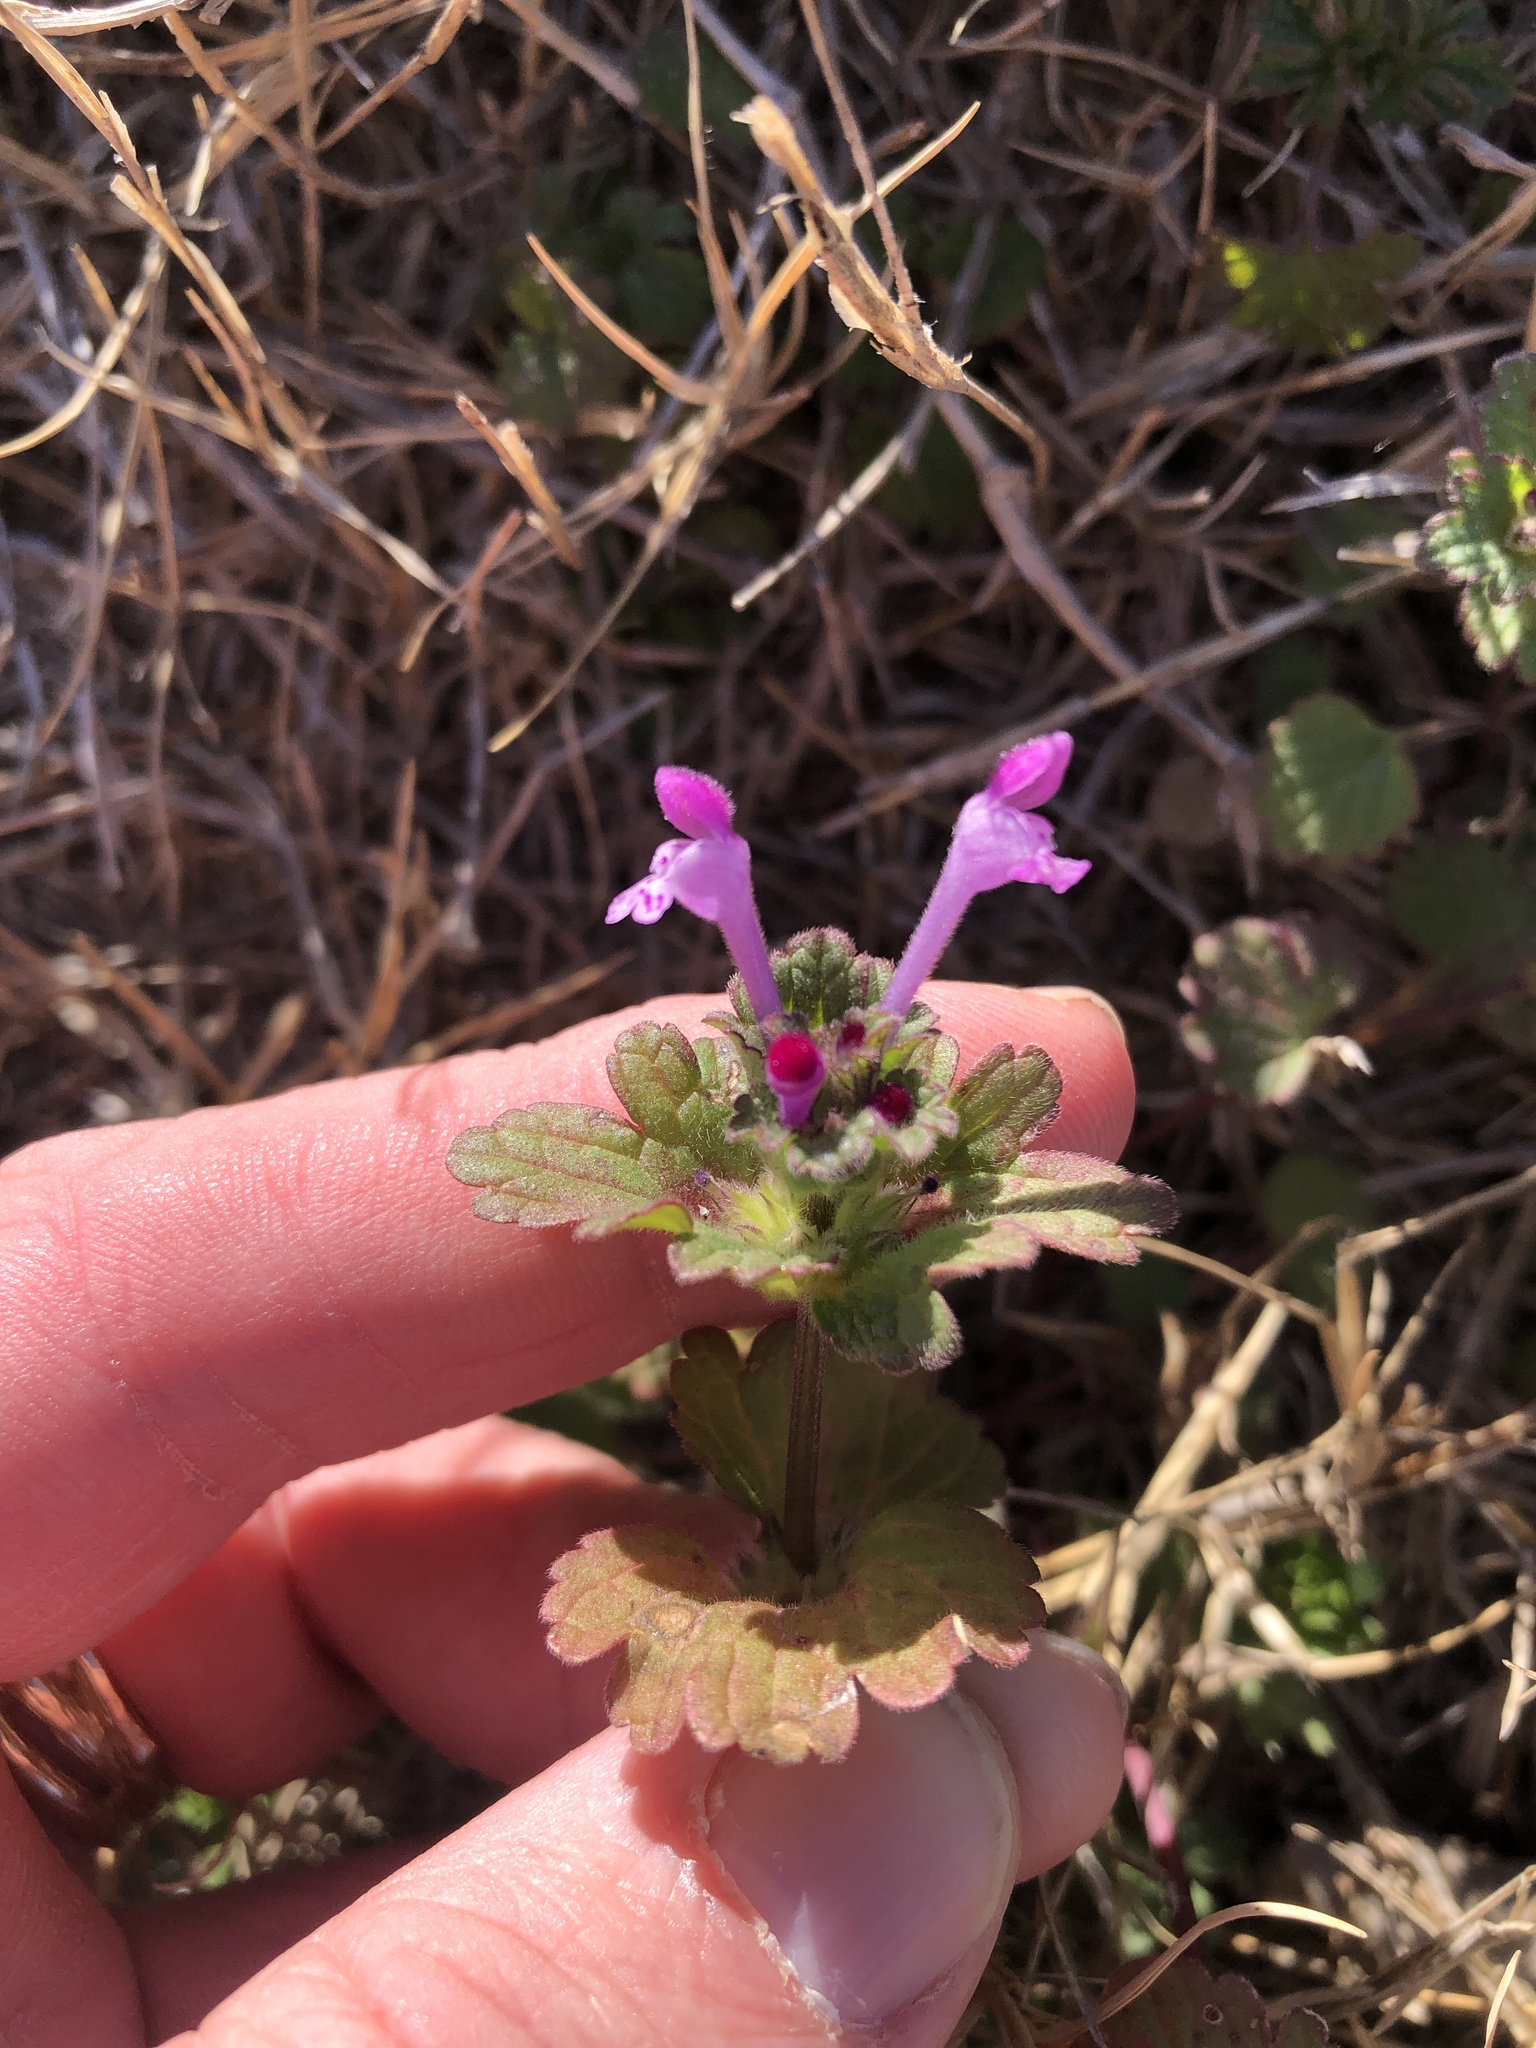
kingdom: Plantae
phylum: Tracheophyta
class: Magnoliopsida
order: Lamiales
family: Lamiaceae
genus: Lamium
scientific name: Lamium amplexicaule
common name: Henbit dead-nettle
